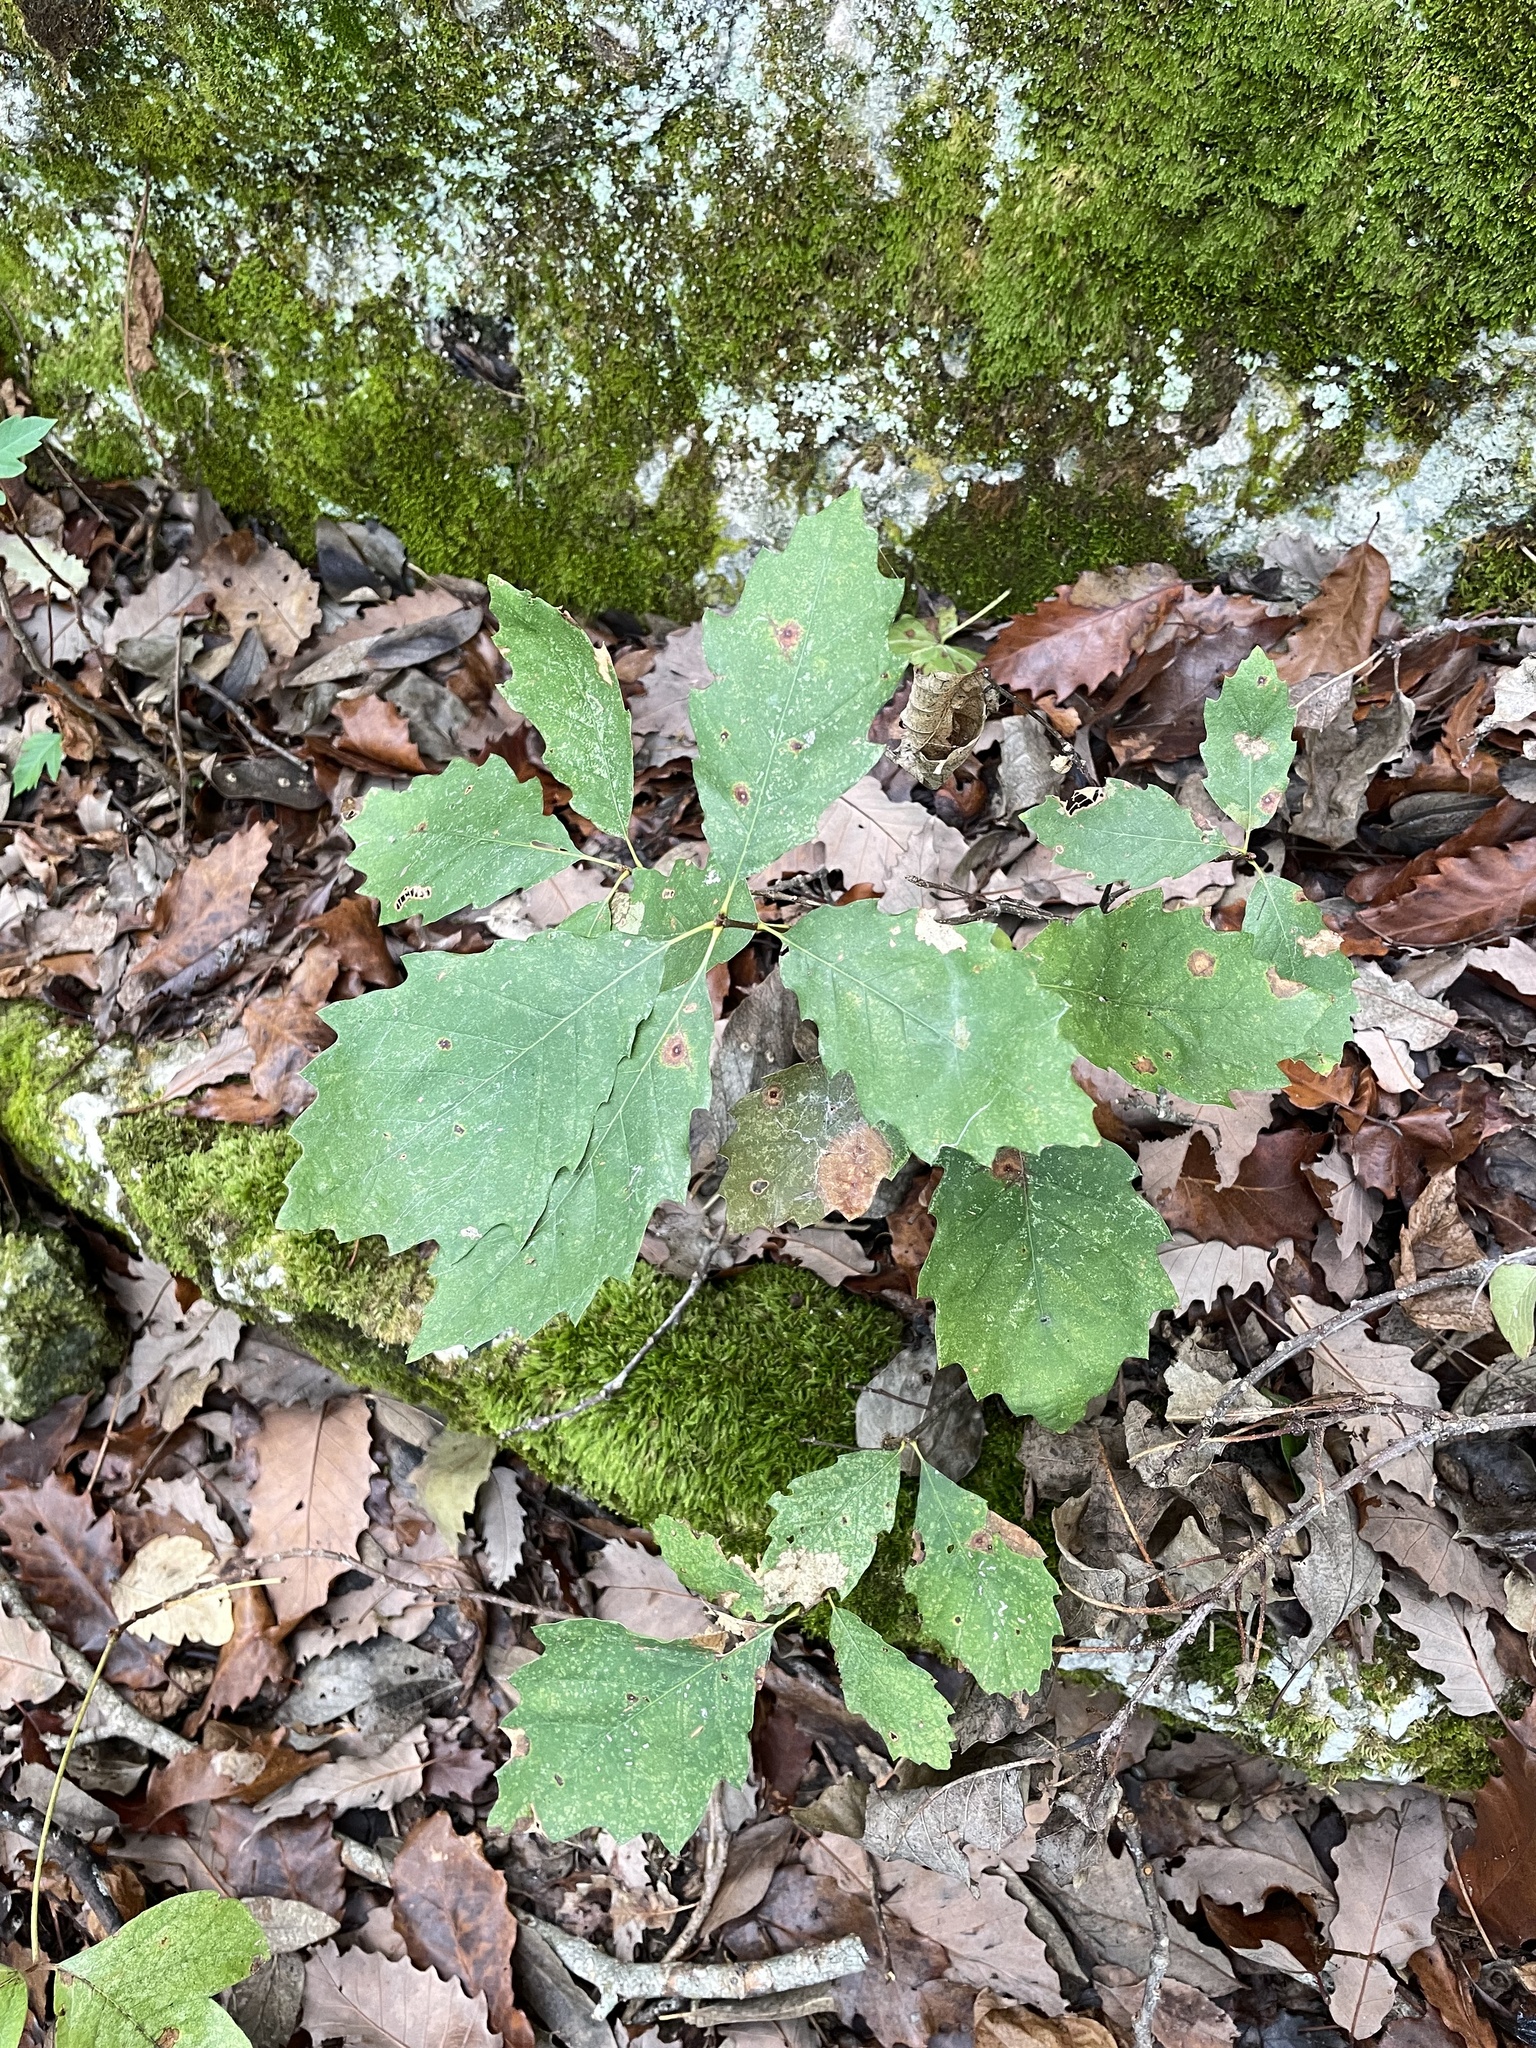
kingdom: Plantae
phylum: Tracheophyta
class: Magnoliopsida
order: Fagales
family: Fagaceae
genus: Quercus
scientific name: Quercus muehlenbergii
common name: Chinkapin oak
